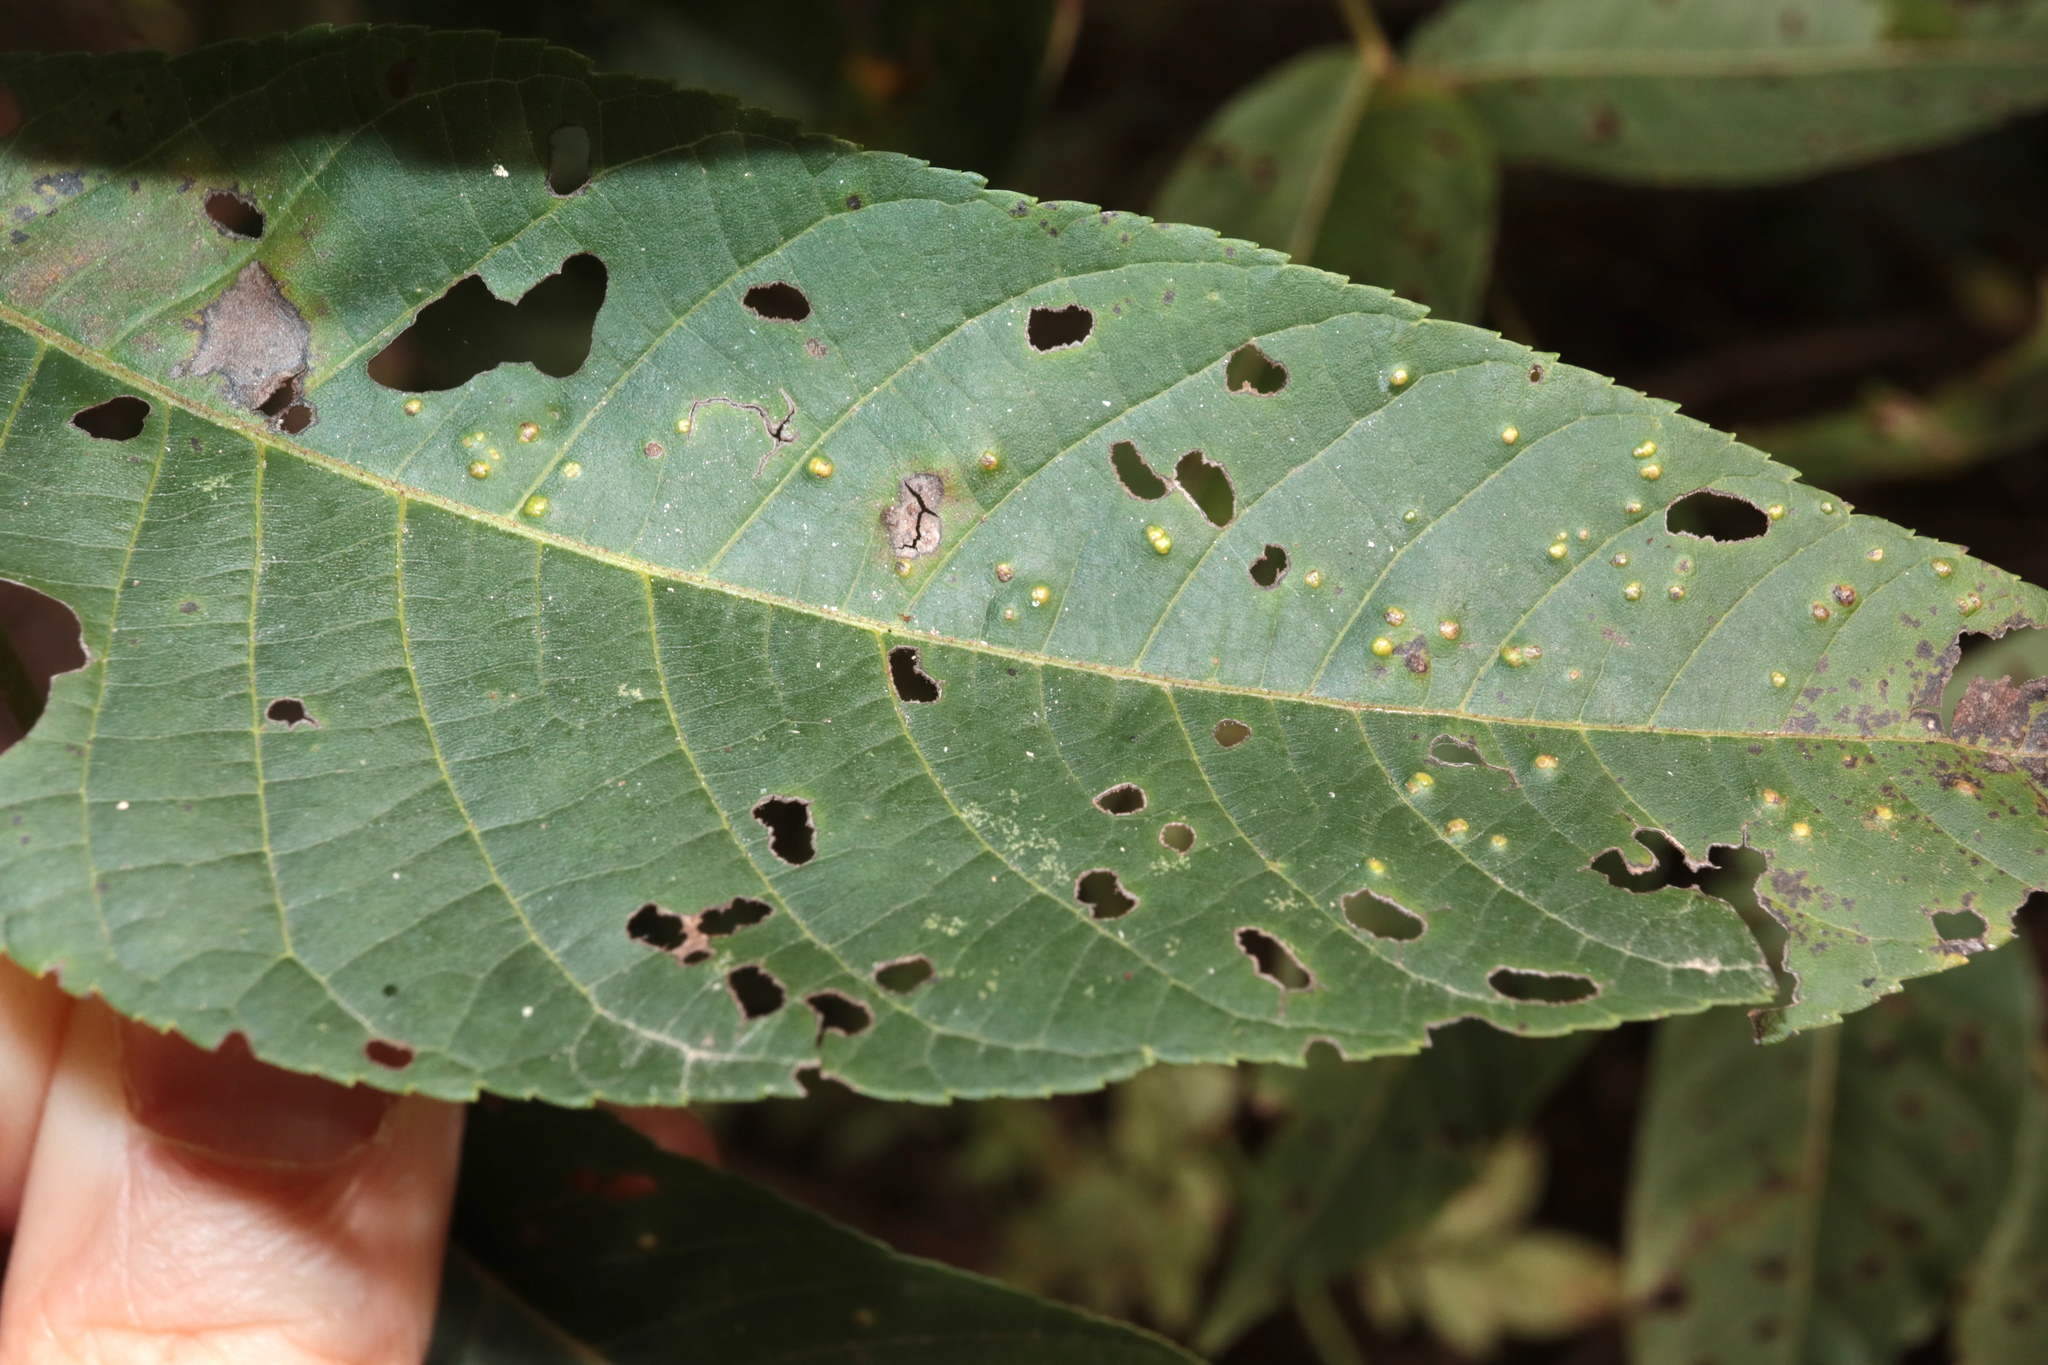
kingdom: Fungi
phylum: Basidiomycota
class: Exobasidiomycetes
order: Microstromatales
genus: Pseudomicrostroma
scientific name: Pseudomicrostroma juglandis
